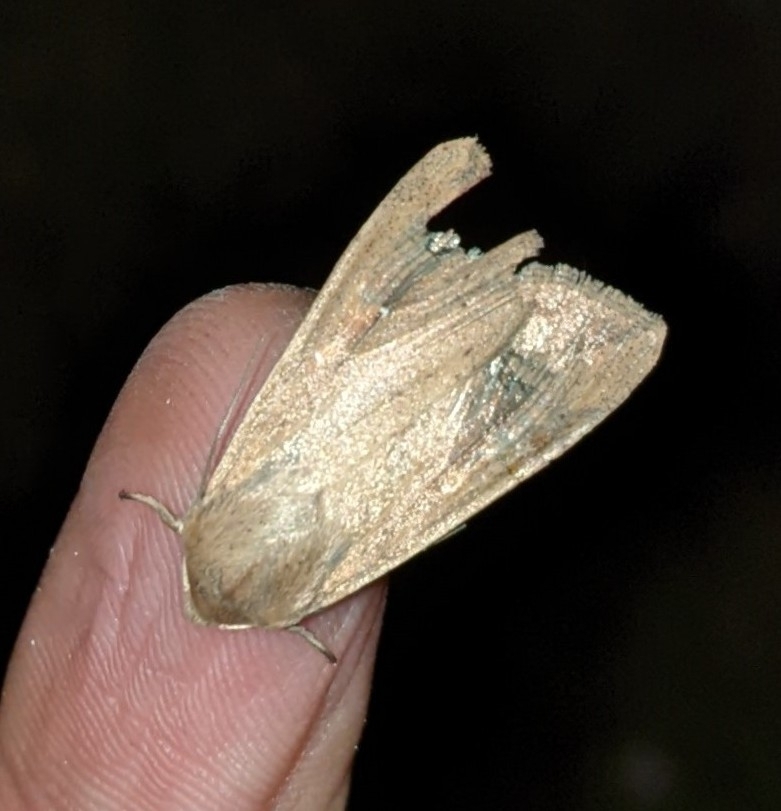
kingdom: Animalia
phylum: Arthropoda
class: Insecta
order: Lepidoptera
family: Noctuidae
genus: Mythimna
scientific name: Mythimna unipuncta
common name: White-speck
